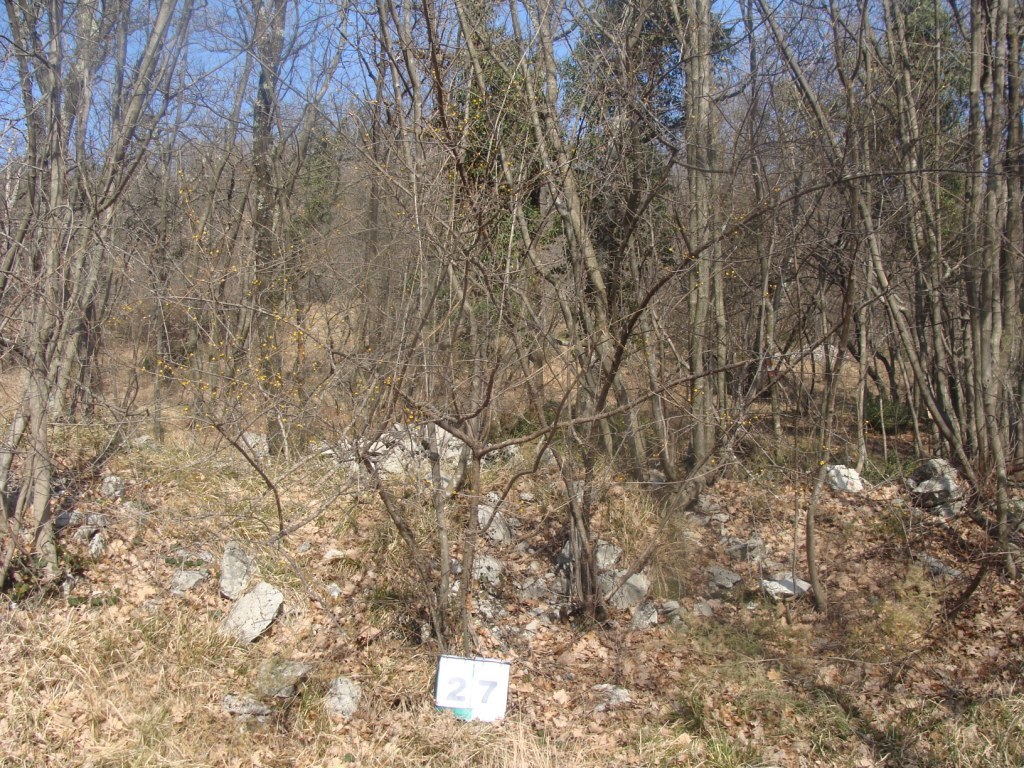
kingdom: Plantae
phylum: Tracheophyta
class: Magnoliopsida
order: Cornales
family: Cornaceae
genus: Cornus
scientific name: Cornus mas
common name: Cornelian-cherry
